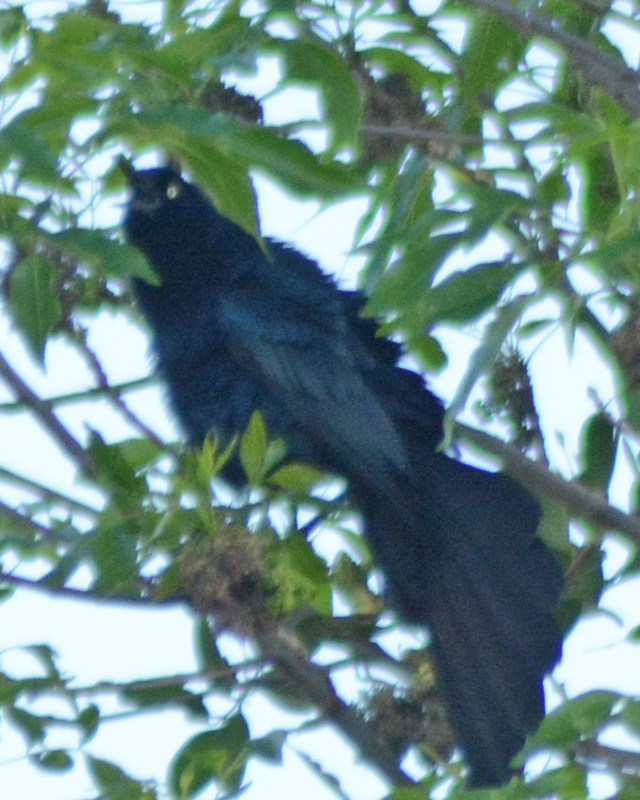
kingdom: Animalia
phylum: Chordata
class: Aves
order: Passeriformes
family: Icteridae
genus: Quiscalus
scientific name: Quiscalus mexicanus
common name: Great-tailed grackle
